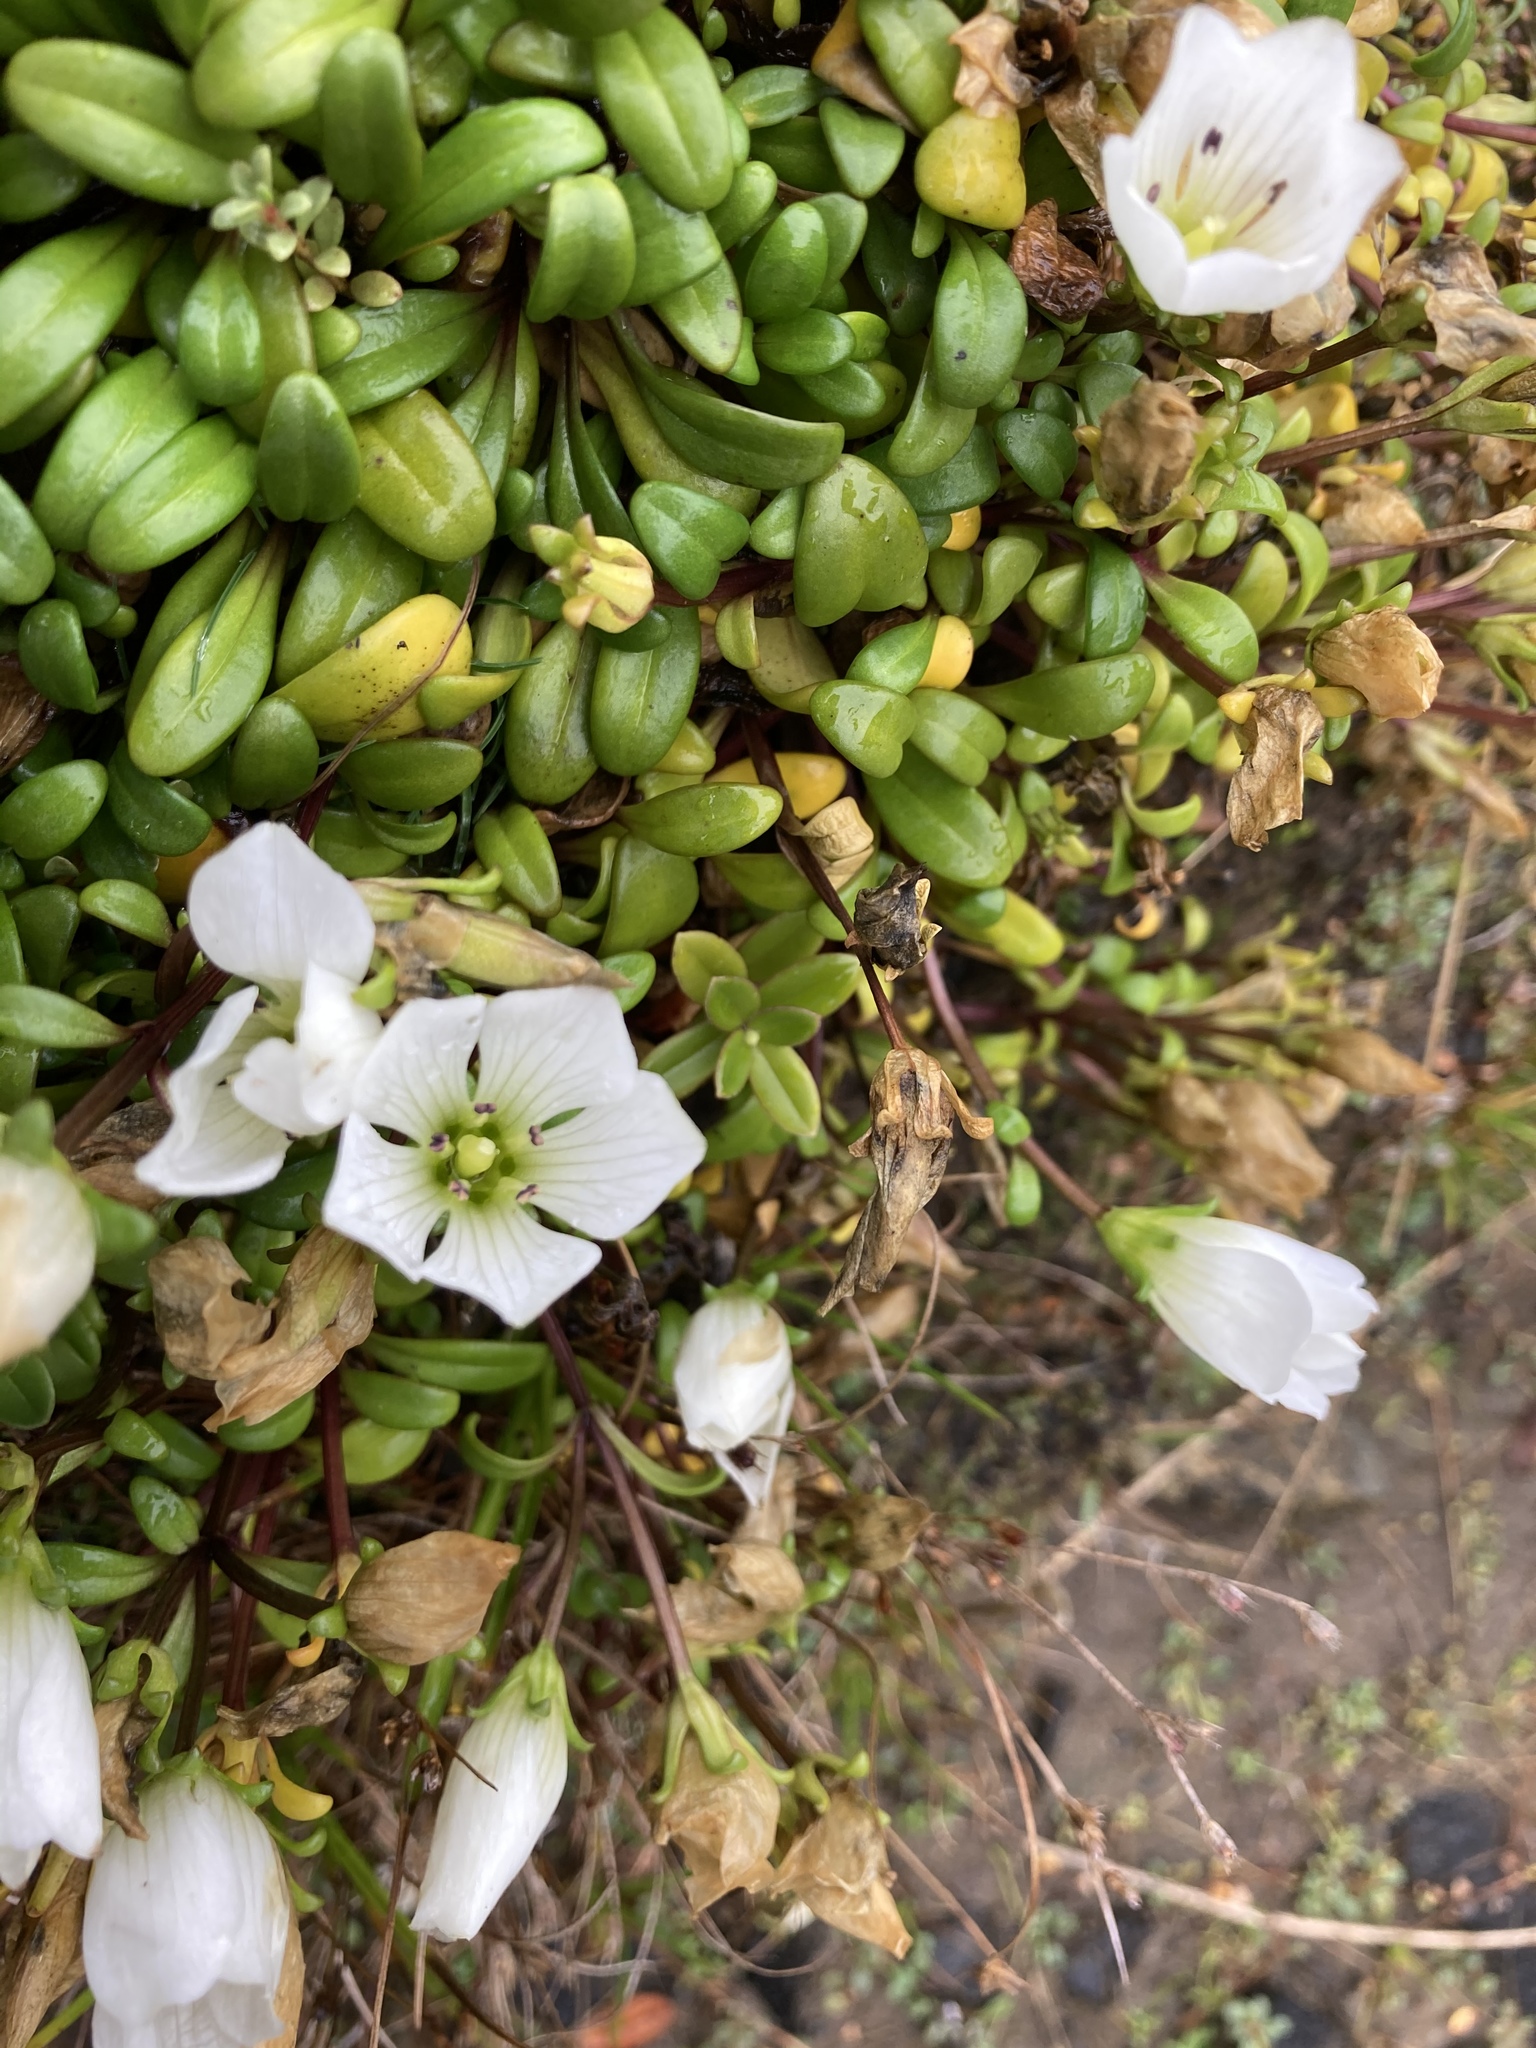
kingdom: Plantae
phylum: Tracheophyta
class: Magnoliopsida
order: Gentianales
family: Gentianaceae
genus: Gentianella
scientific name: Gentianella saxosa
